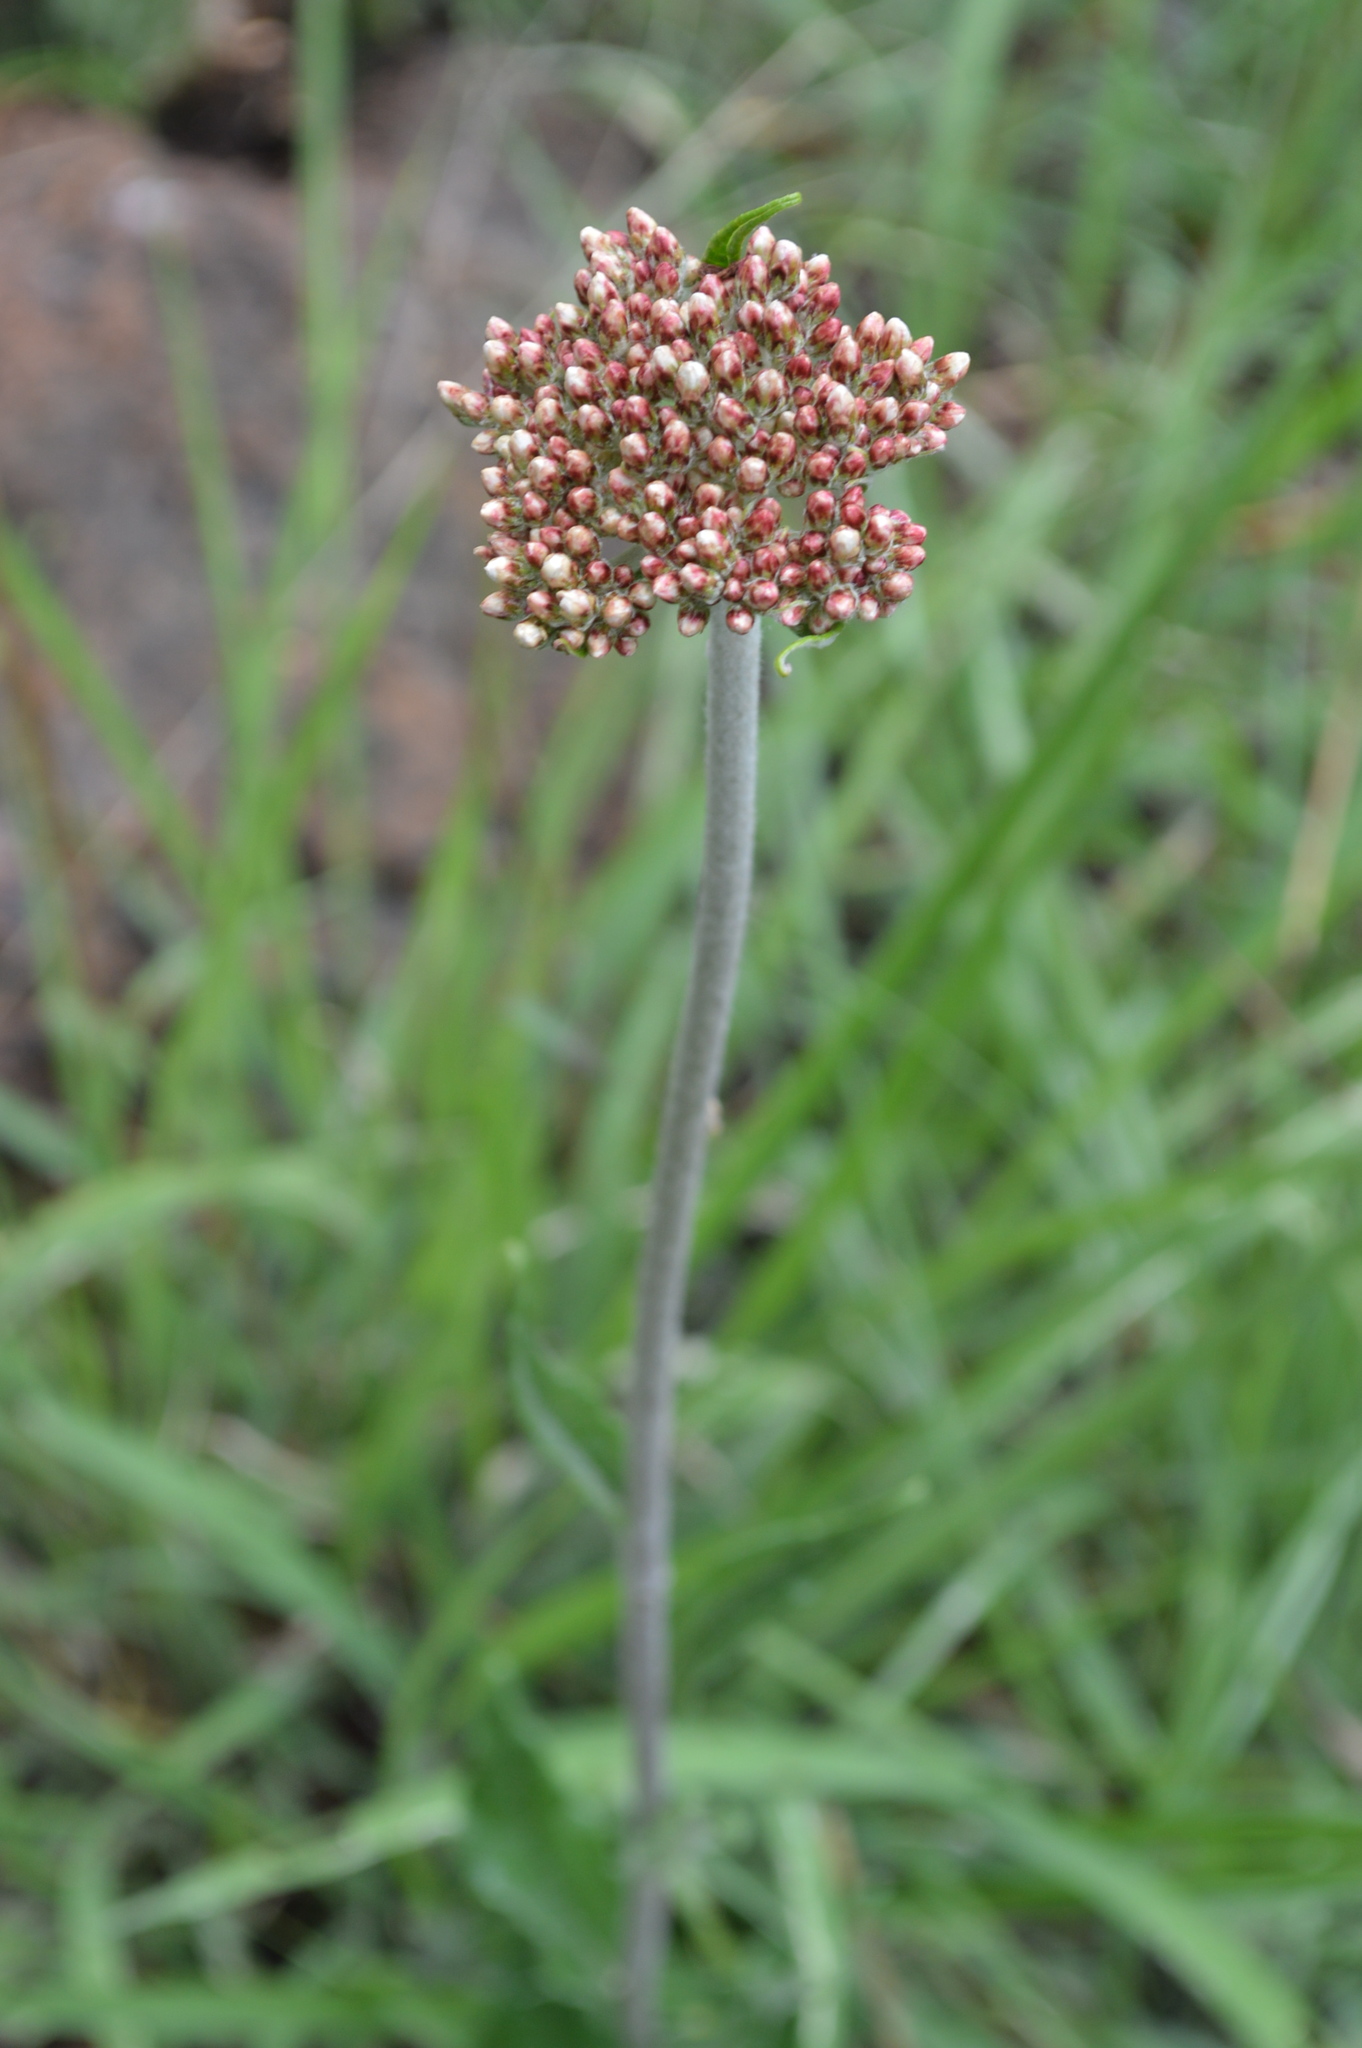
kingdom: Plantae
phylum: Tracheophyta
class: Magnoliopsida
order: Asterales
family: Asteraceae
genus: Helichrysum
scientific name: Helichrysum nudifolium
